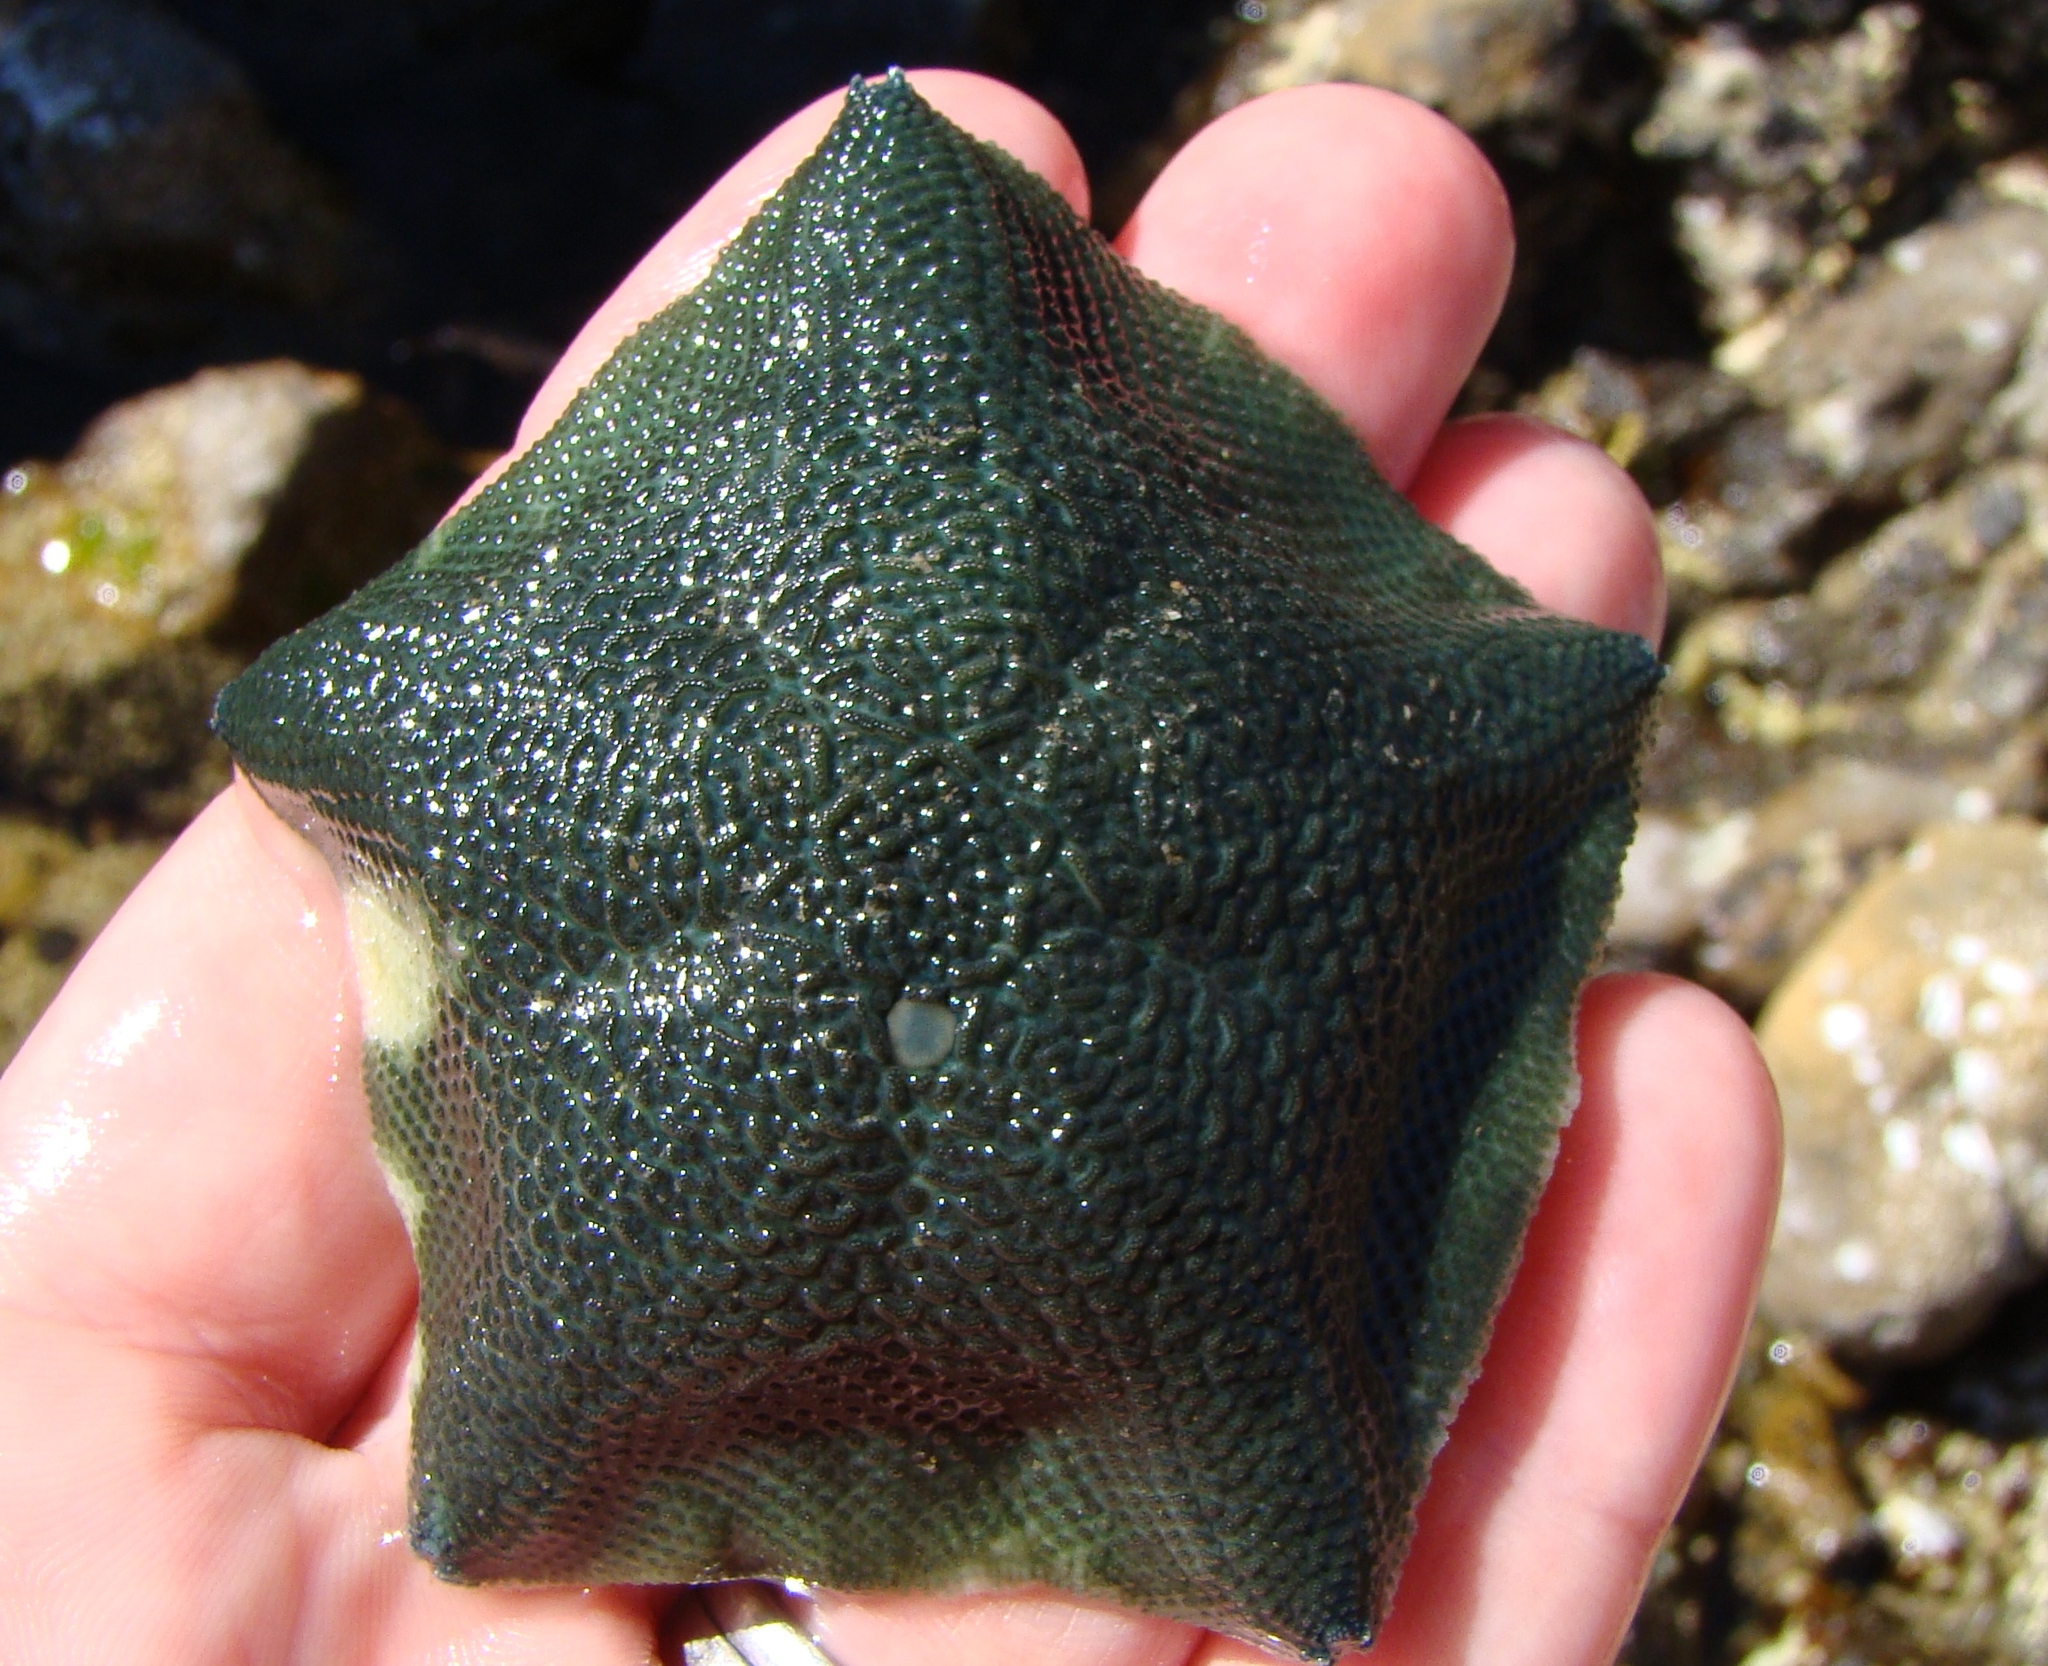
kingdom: Animalia
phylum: Echinodermata
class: Asteroidea
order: Valvatida
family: Asterinidae
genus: Patiriella
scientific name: Patiriella regularis
